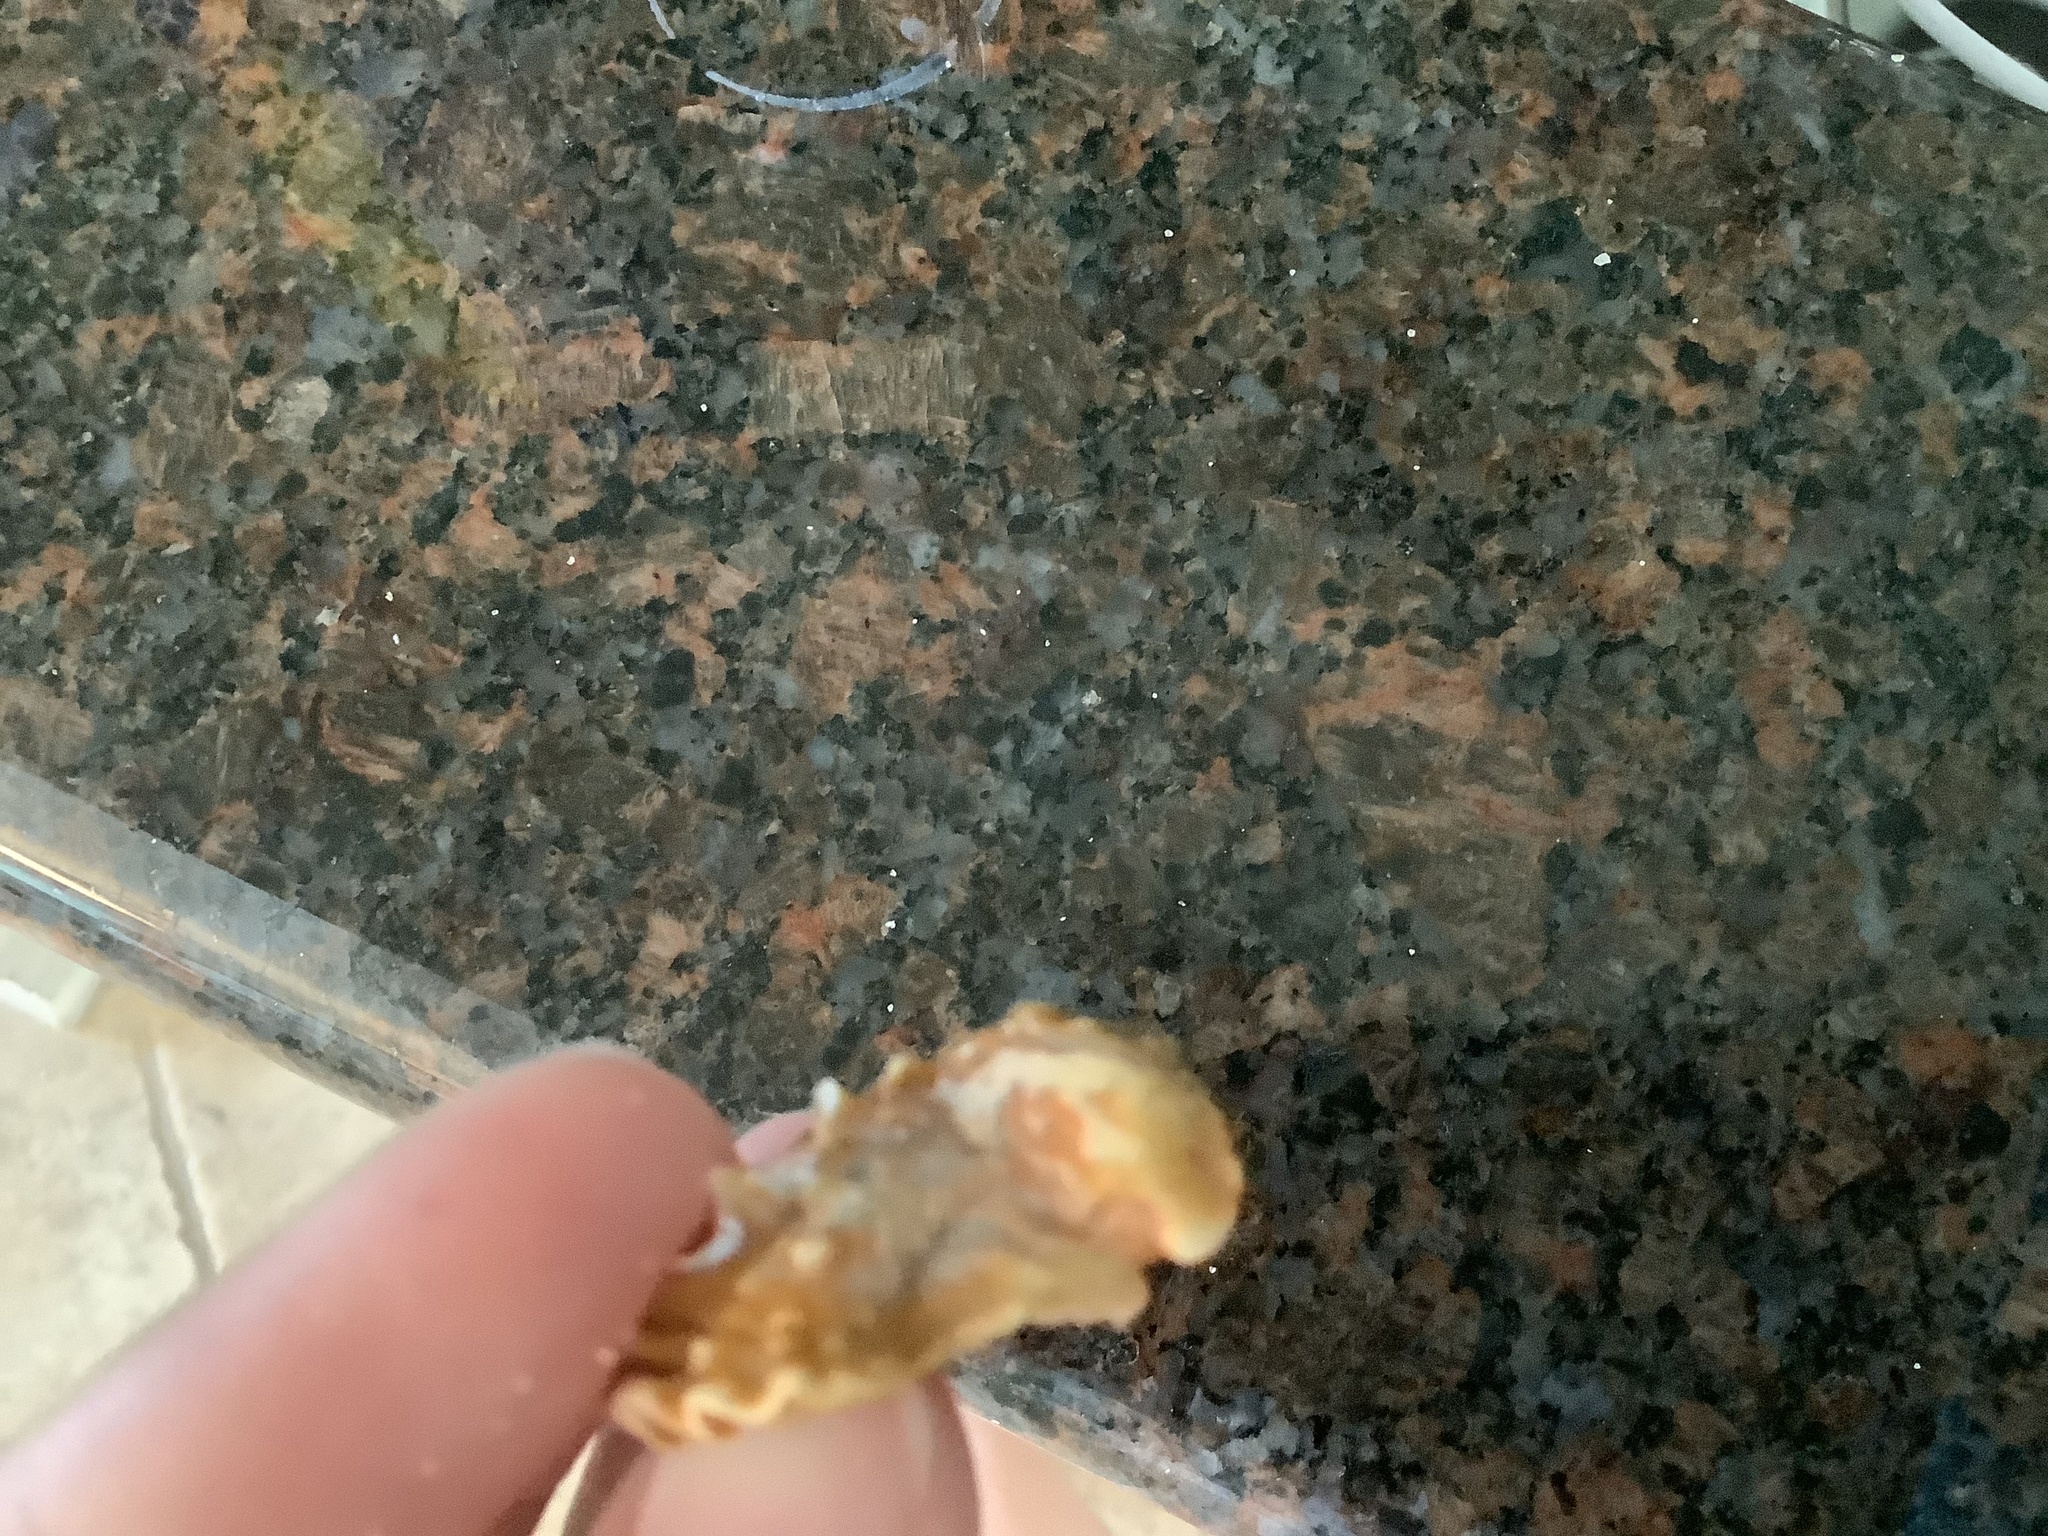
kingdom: Animalia
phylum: Mollusca
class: Bivalvia
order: Venerida
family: Chamidae
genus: Arcinella
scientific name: Arcinella cornuta
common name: Florida spiny jewel box
